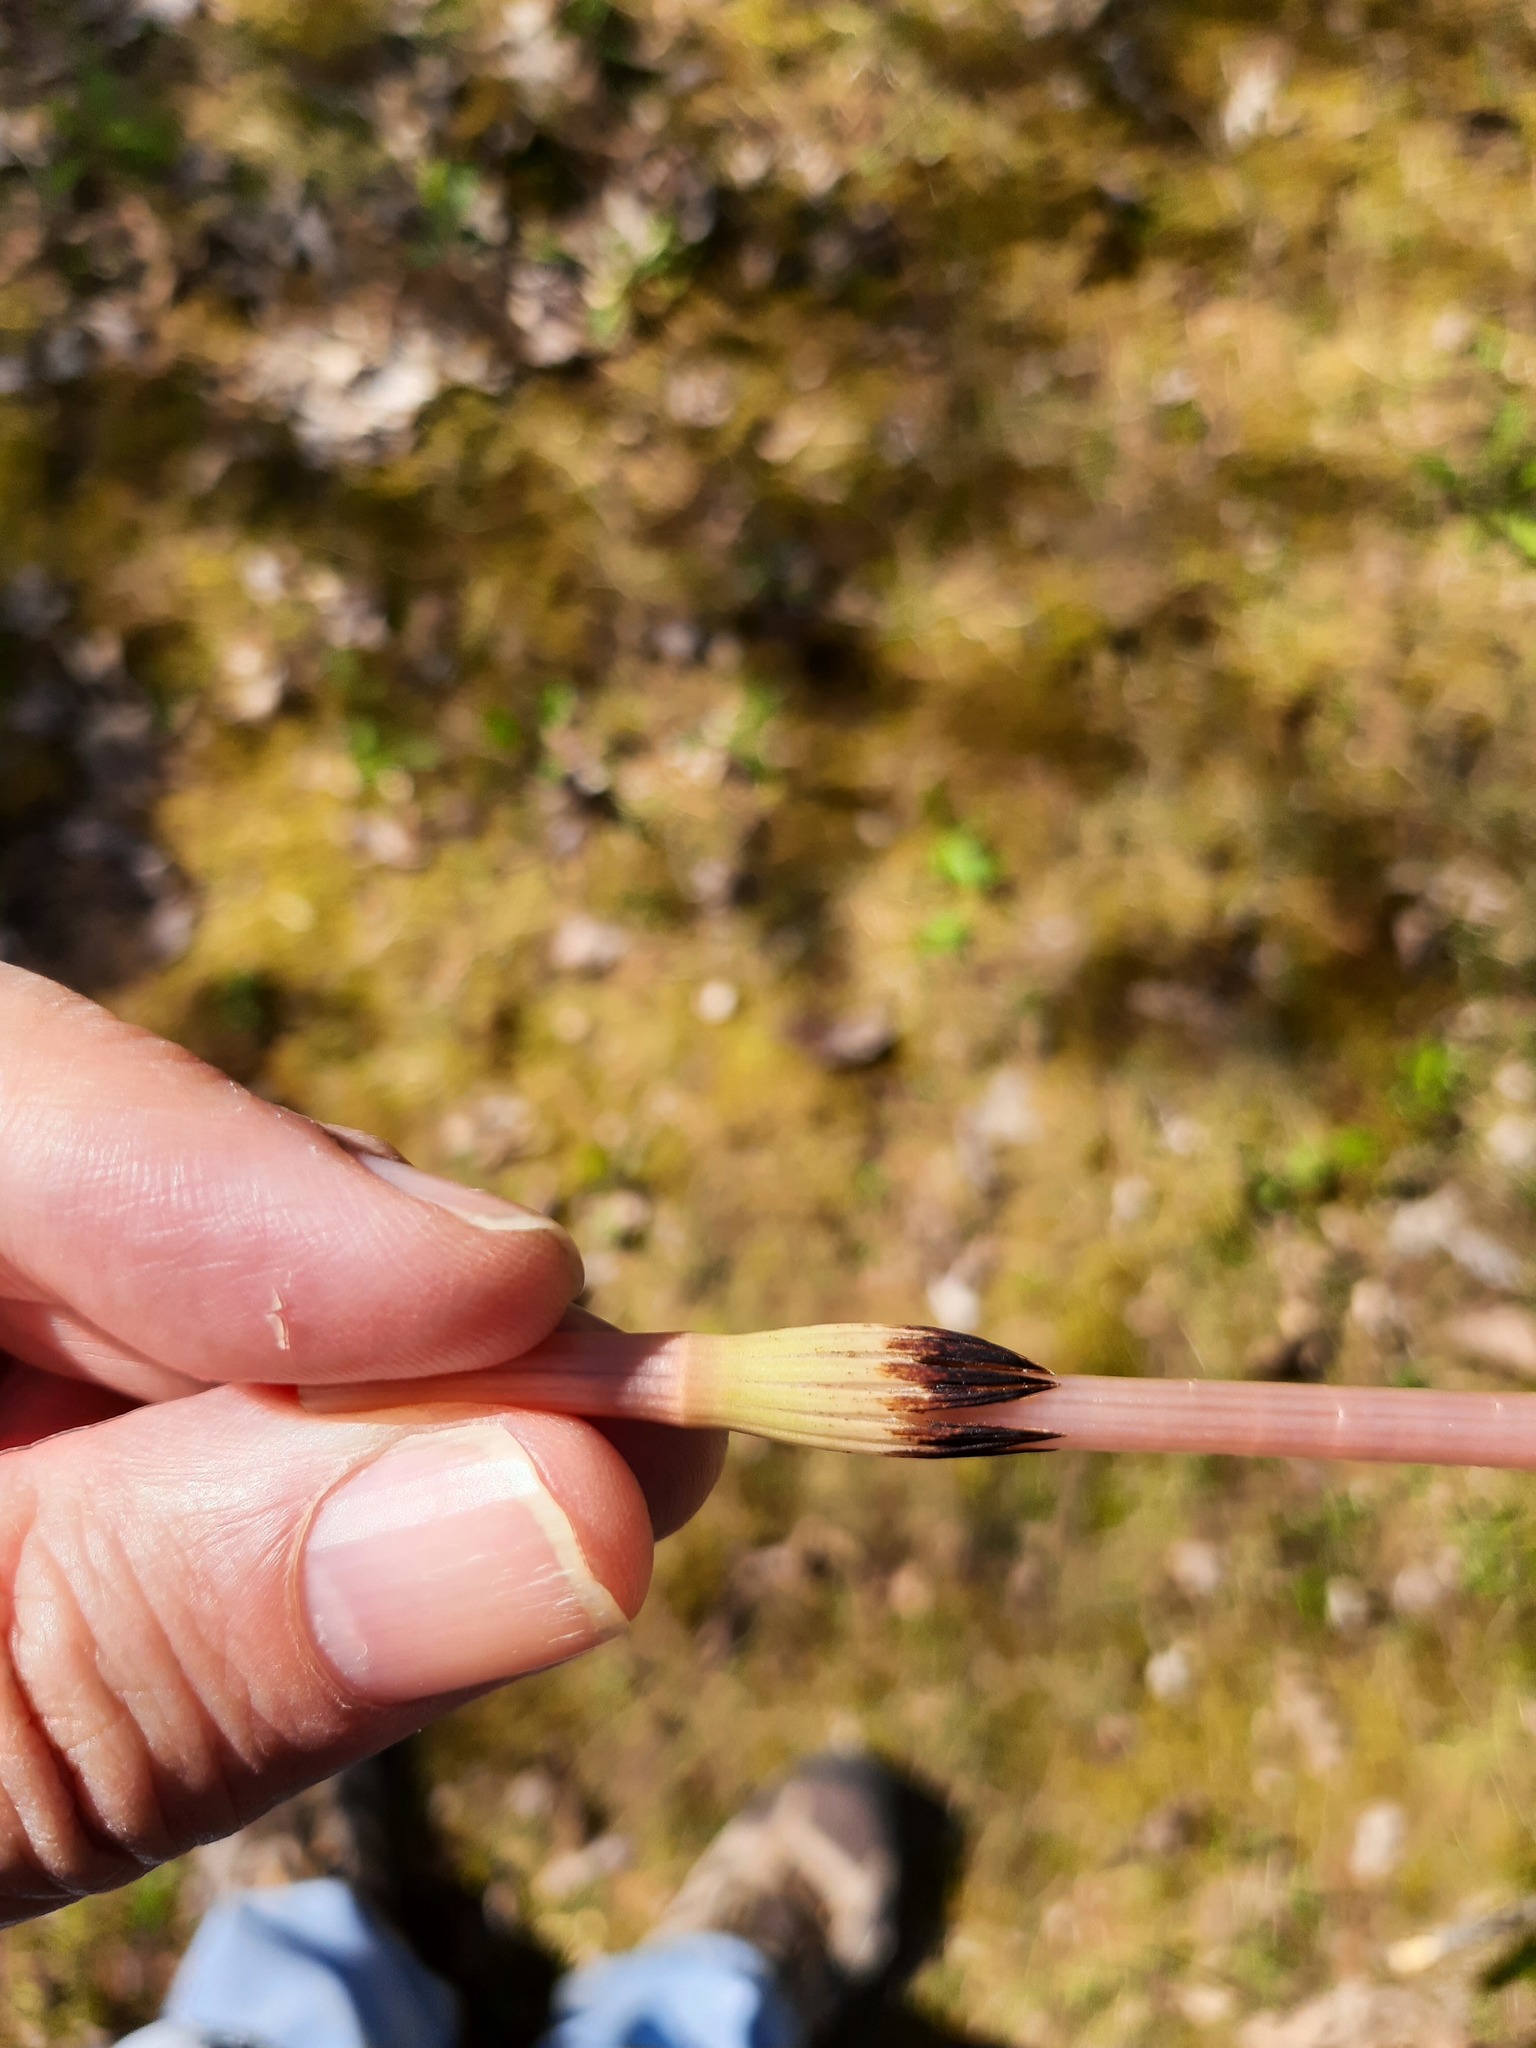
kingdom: Plantae
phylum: Tracheophyta
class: Polypodiopsida
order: Equisetales
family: Equisetaceae
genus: Equisetum
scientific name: Equisetum arvense
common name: Field horsetail
